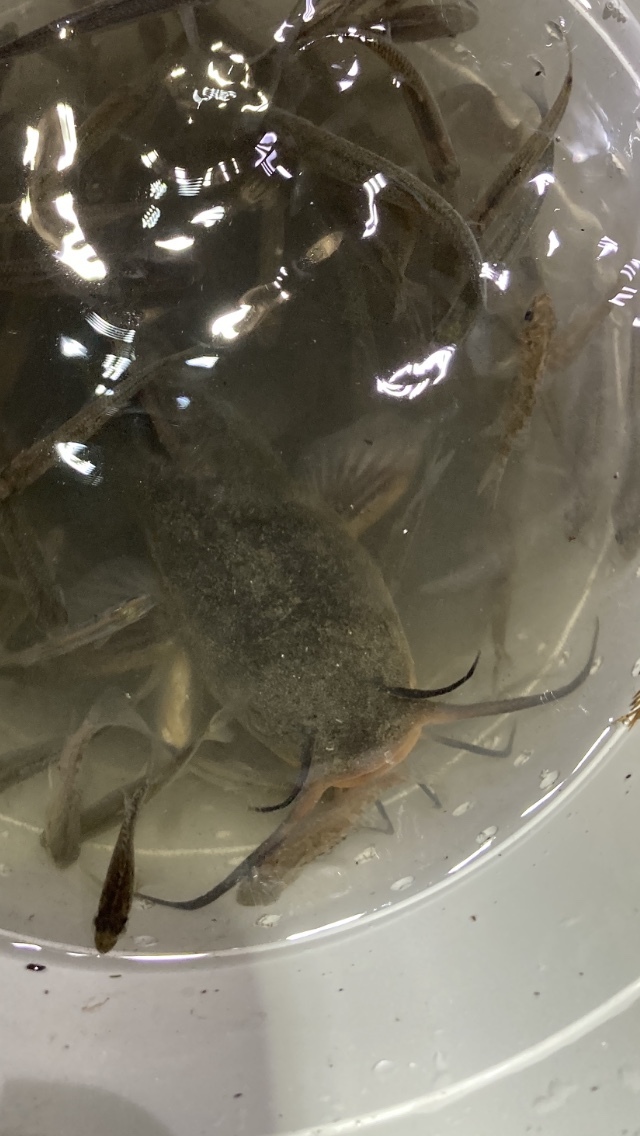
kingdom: Animalia
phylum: Chordata
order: Siluriformes
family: Ictaluridae
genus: Ameiurus
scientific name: Ameiurus nebulosus
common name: Brown bullhead
